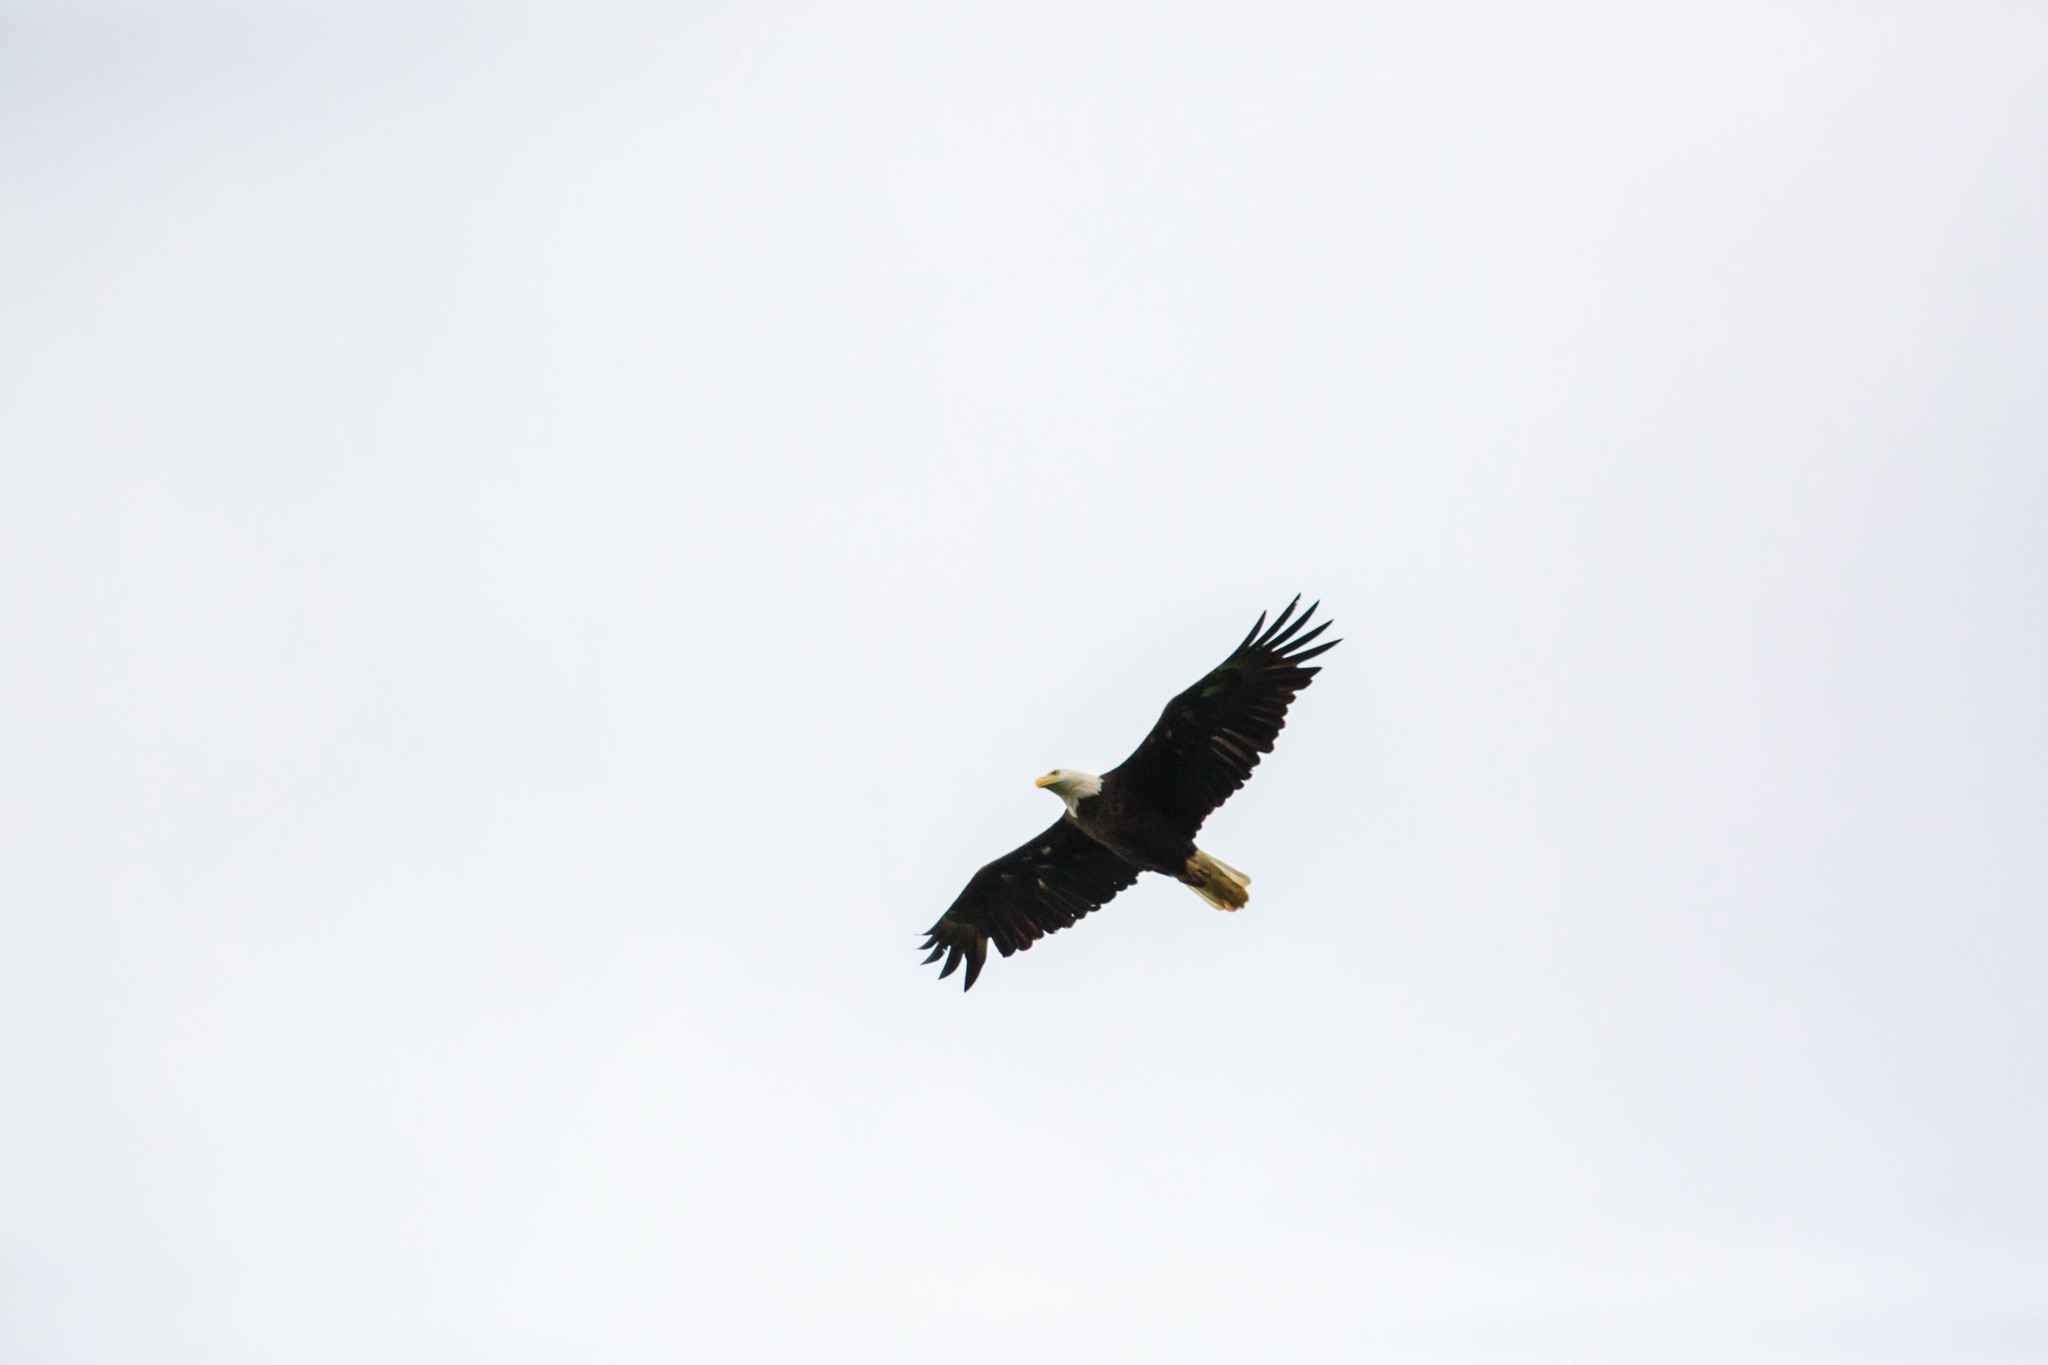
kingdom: Animalia
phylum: Chordata
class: Aves
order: Accipitriformes
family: Accipitridae
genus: Haliaeetus
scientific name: Haliaeetus leucocephalus
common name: Bald eagle
